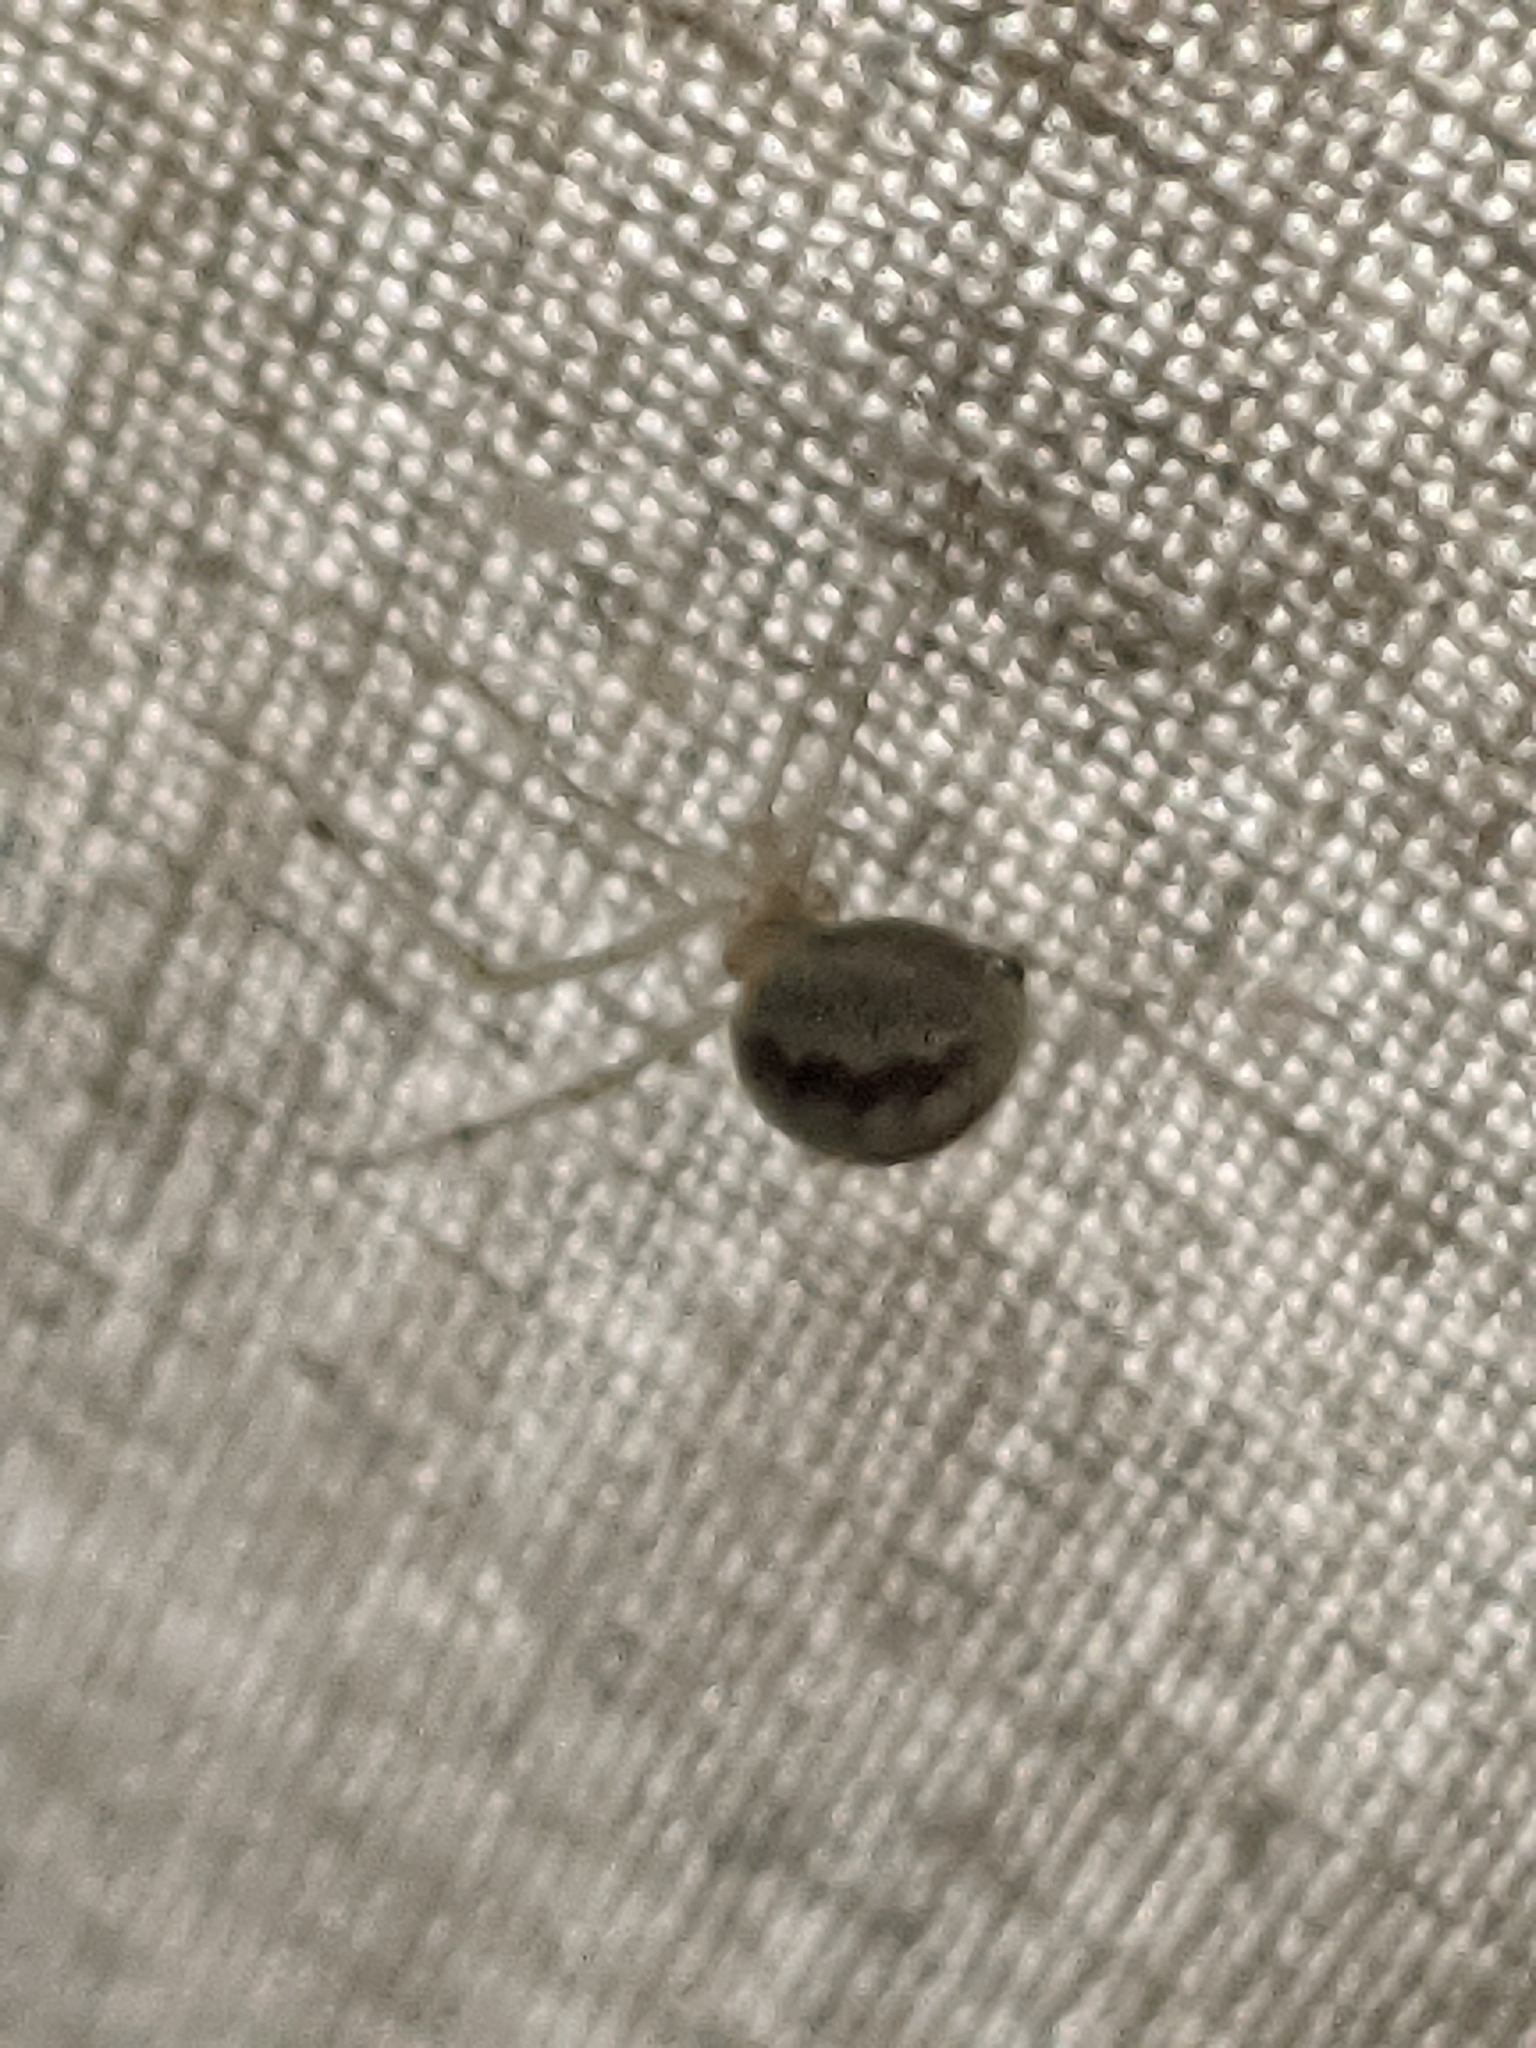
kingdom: Animalia
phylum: Arthropoda
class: Arachnida
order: Araneae
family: Theridiidae
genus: Enoplognatha
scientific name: Enoplognatha ovata
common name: Common candy-striped spider
